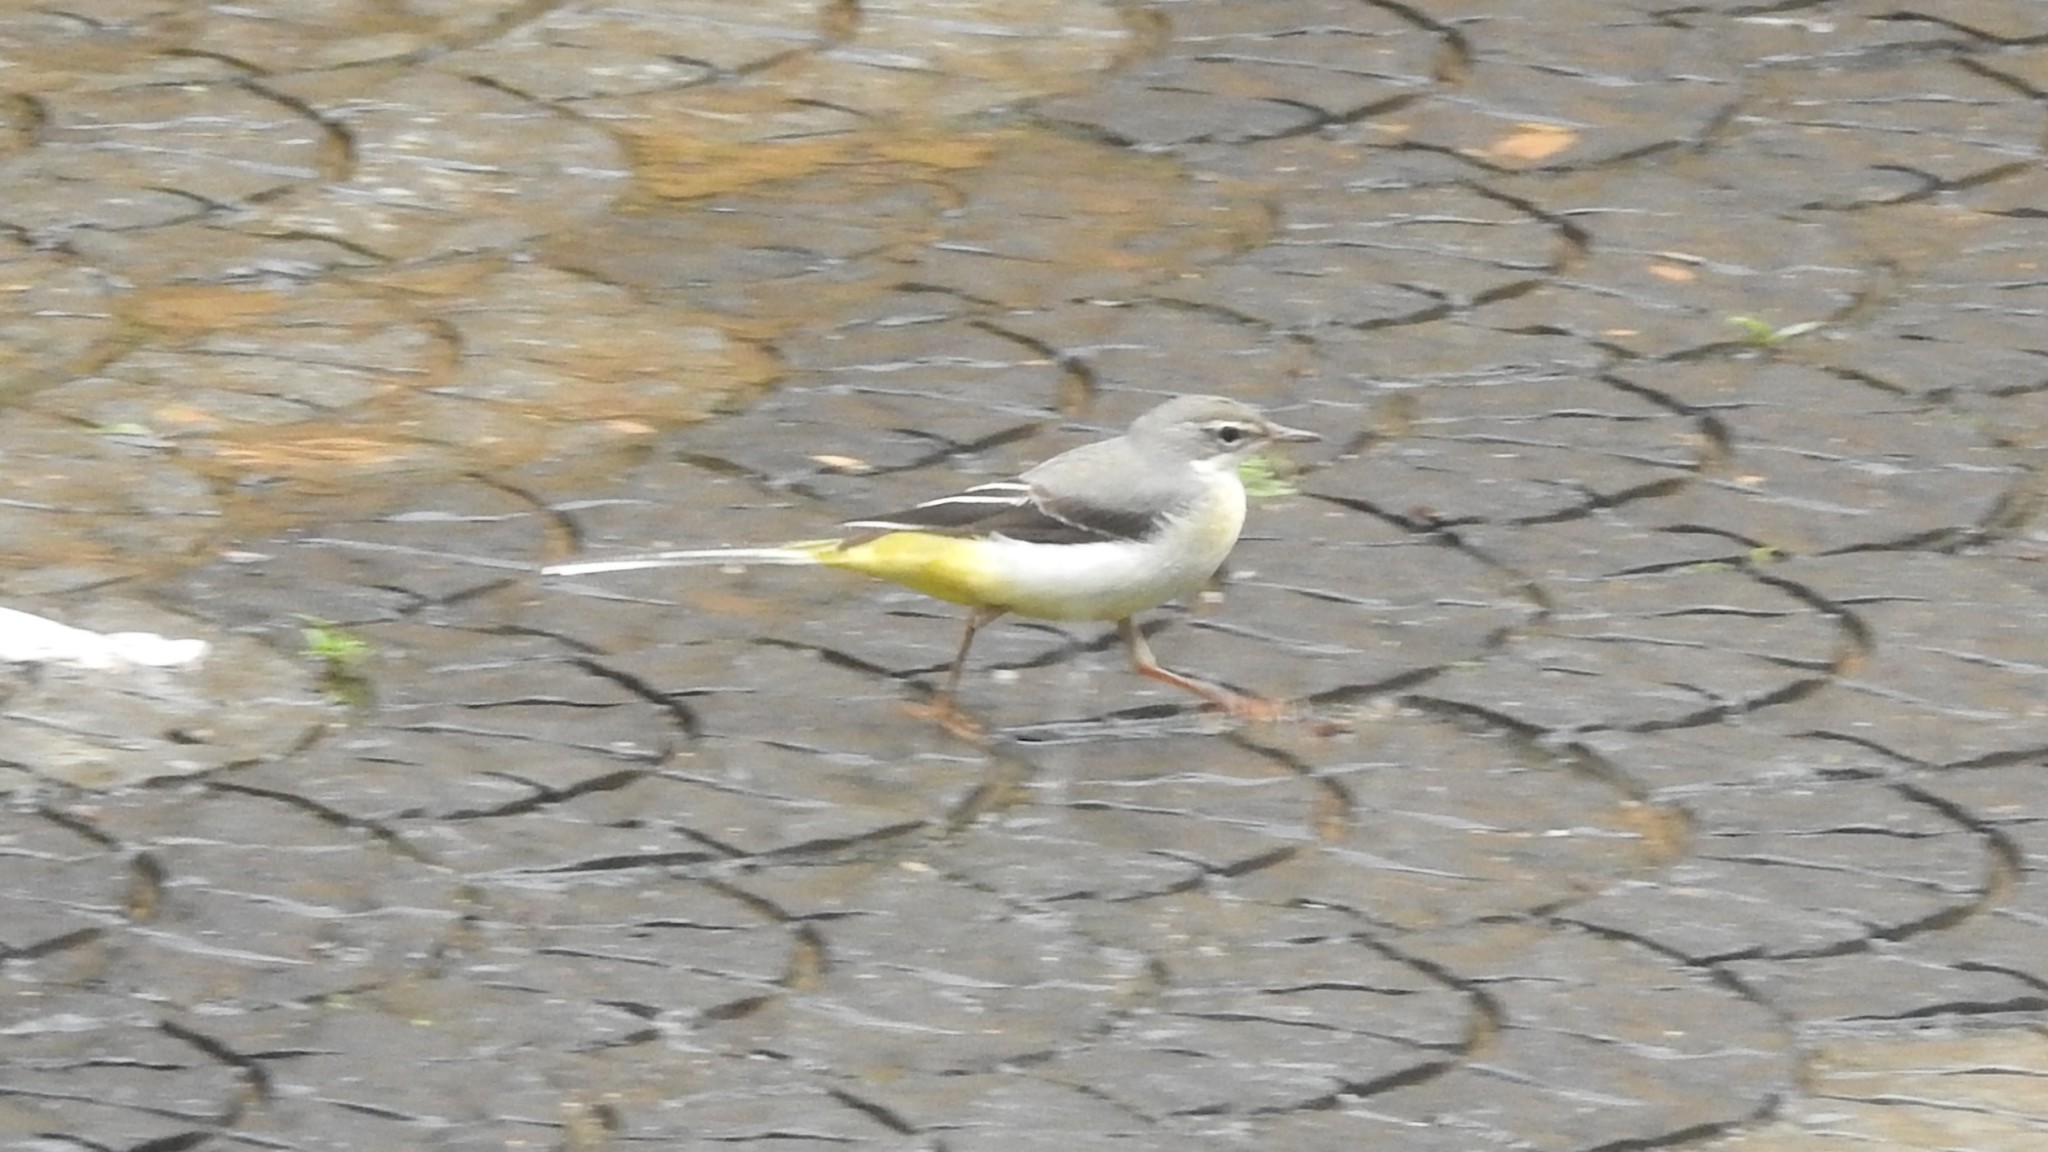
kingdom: Animalia
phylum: Chordata
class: Aves
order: Passeriformes
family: Motacillidae
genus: Motacilla
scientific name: Motacilla cinerea
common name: Grey wagtail
